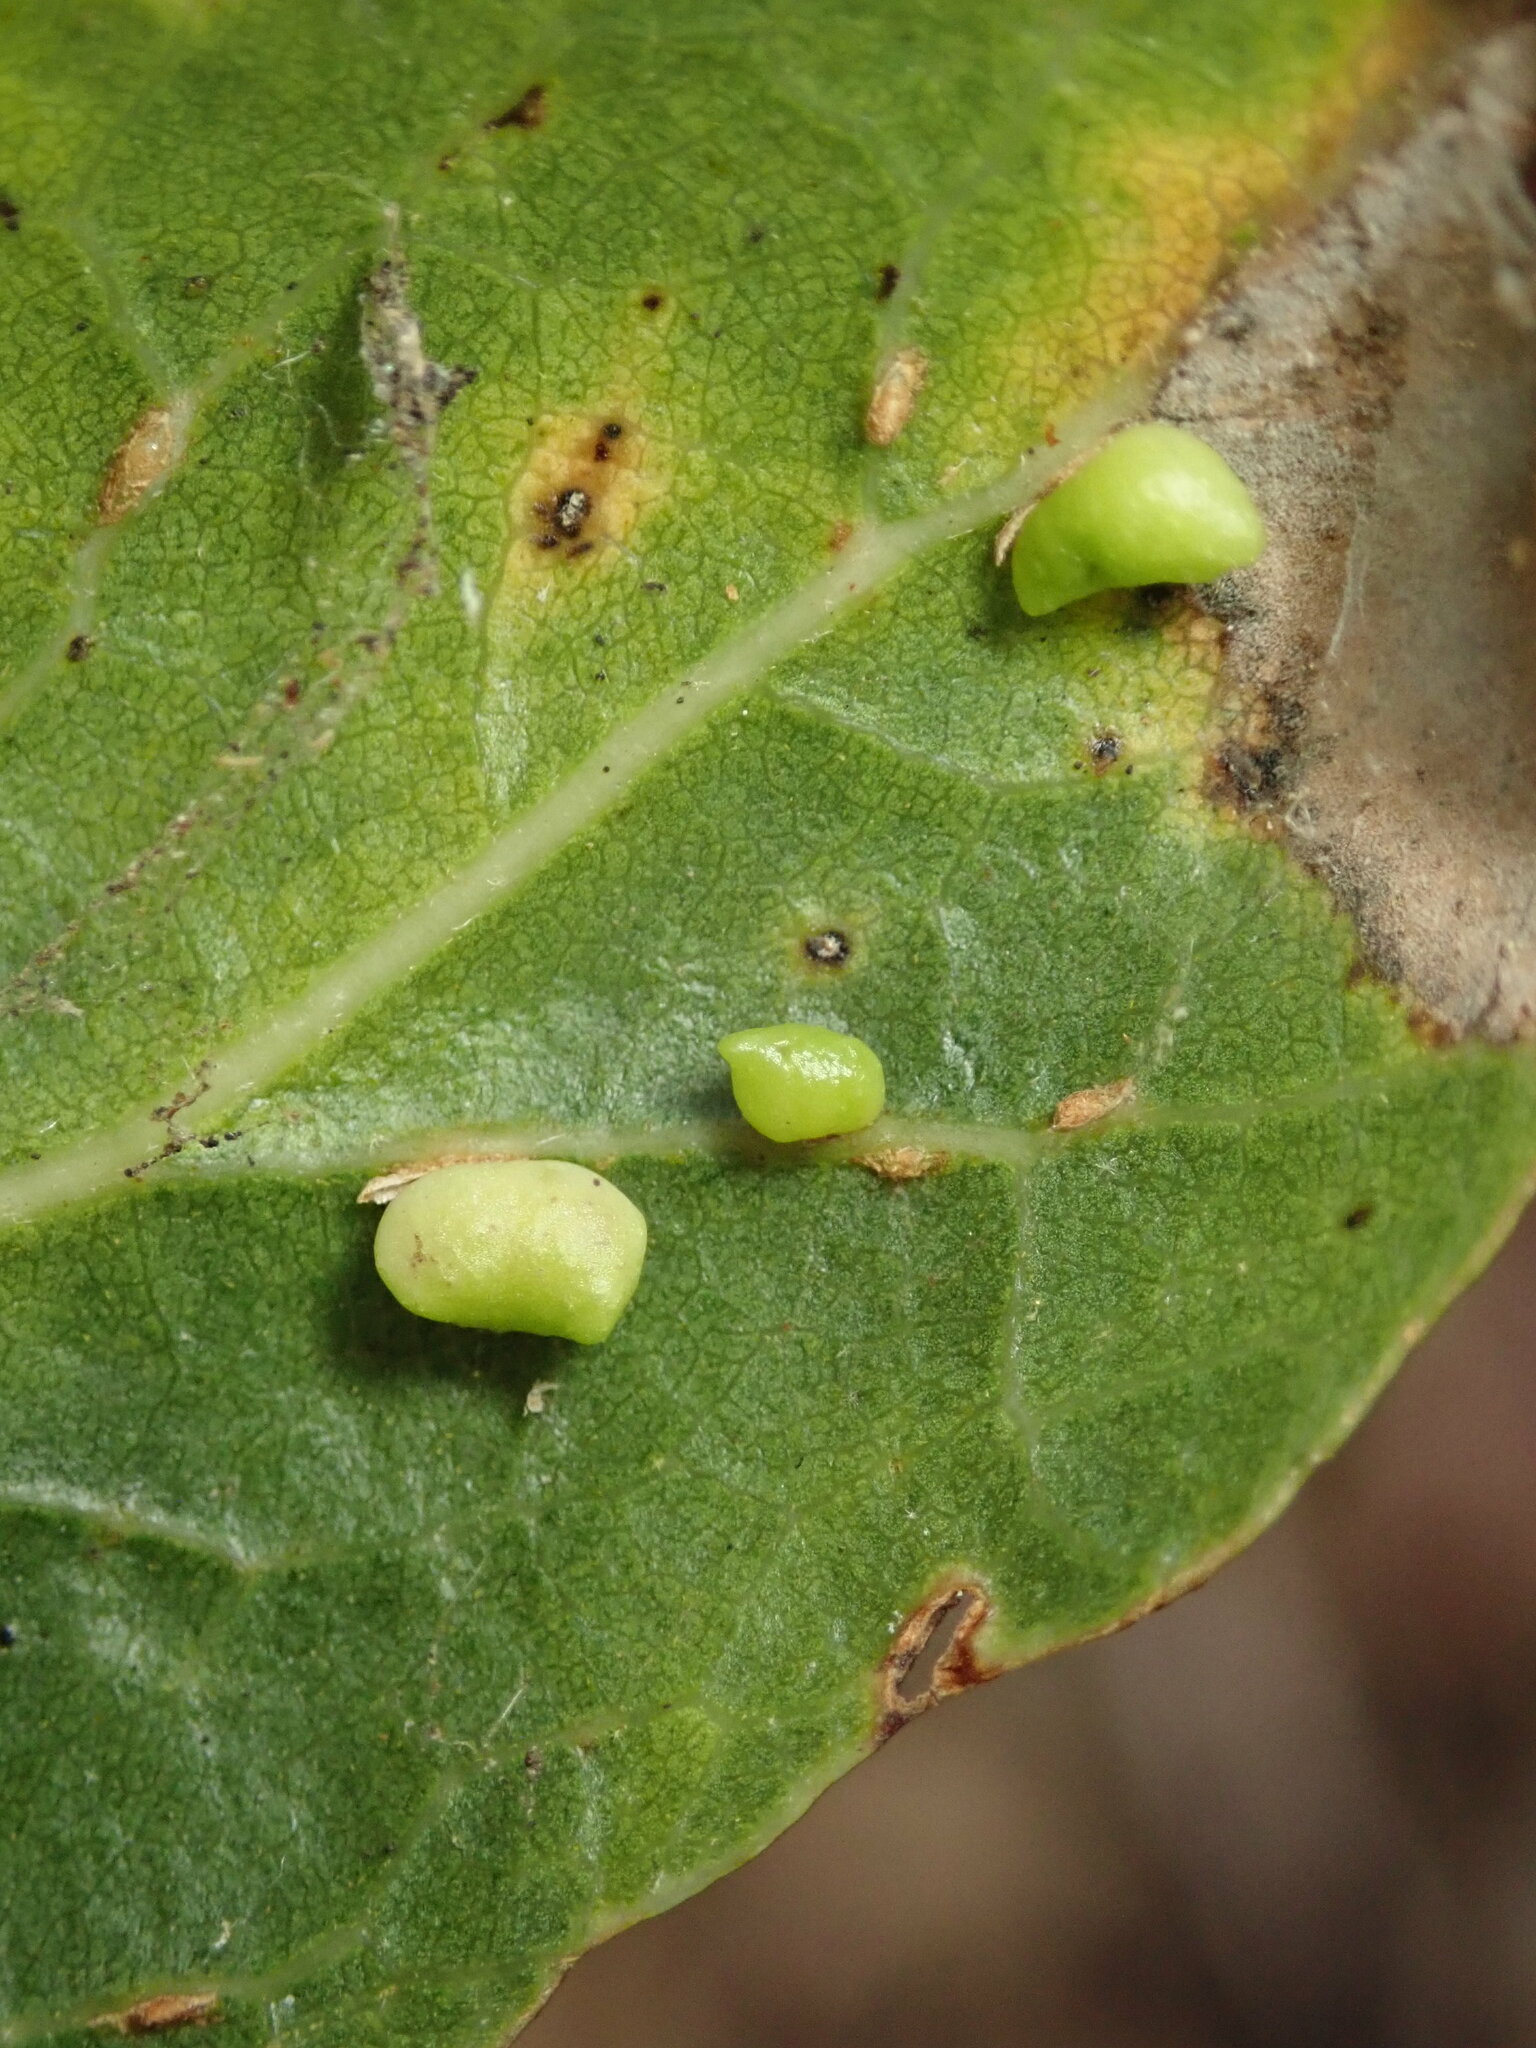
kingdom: Animalia
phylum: Arthropoda
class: Insecta
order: Hymenoptera
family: Cynipidae
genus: Dryocosmus
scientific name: Dryocosmus
